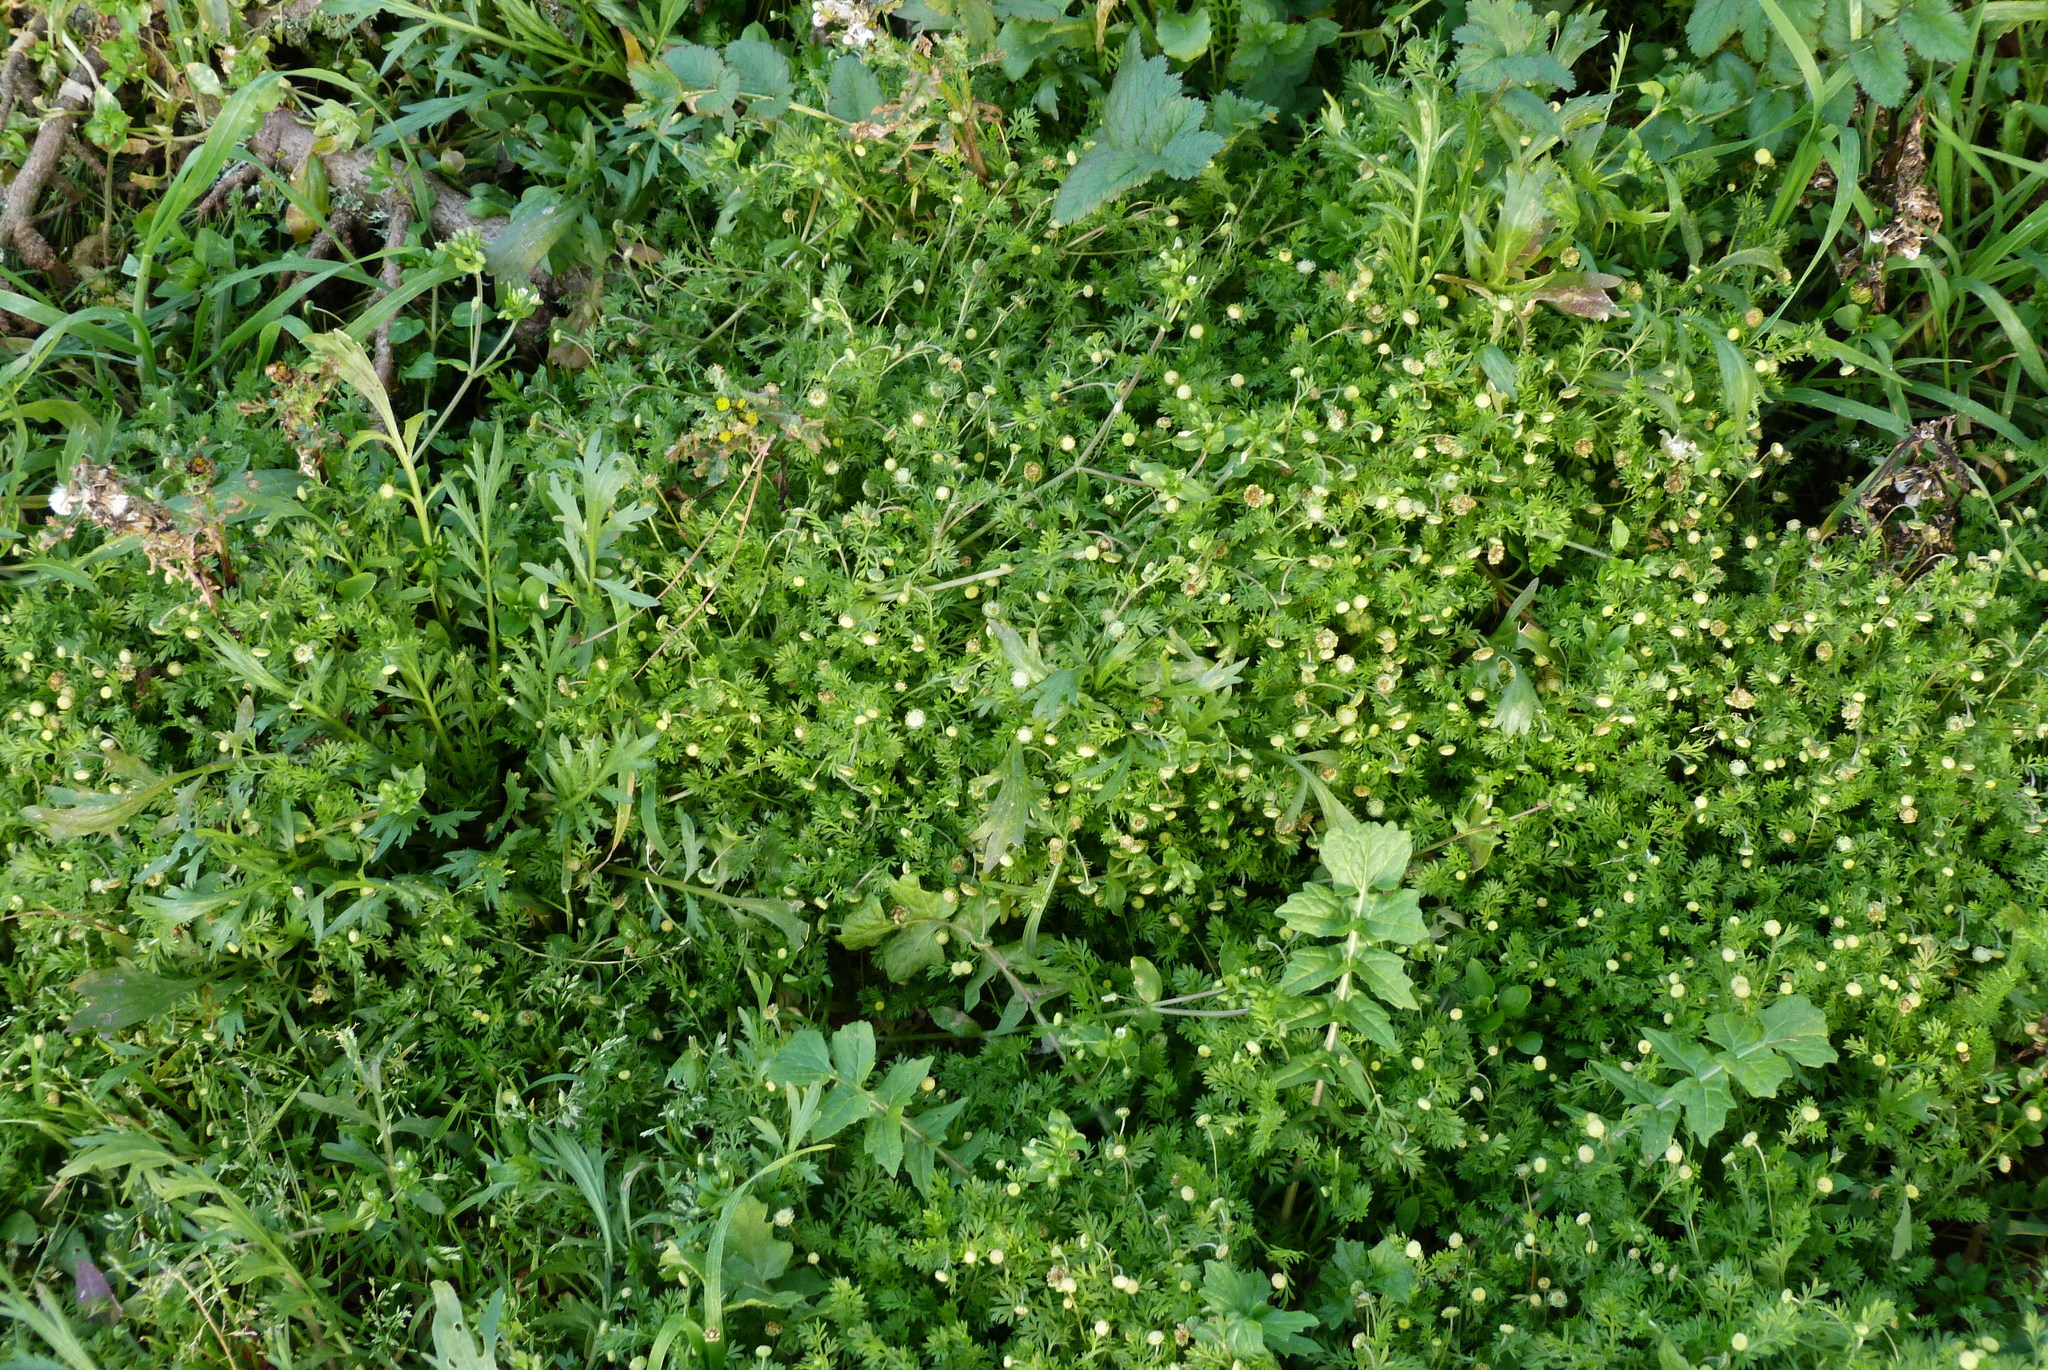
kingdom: Plantae
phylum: Tracheophyta
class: Magnoliopsida
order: Asterales
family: Asteraceae
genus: Cotula
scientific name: Cotula australis
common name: Australian waterbuttons
